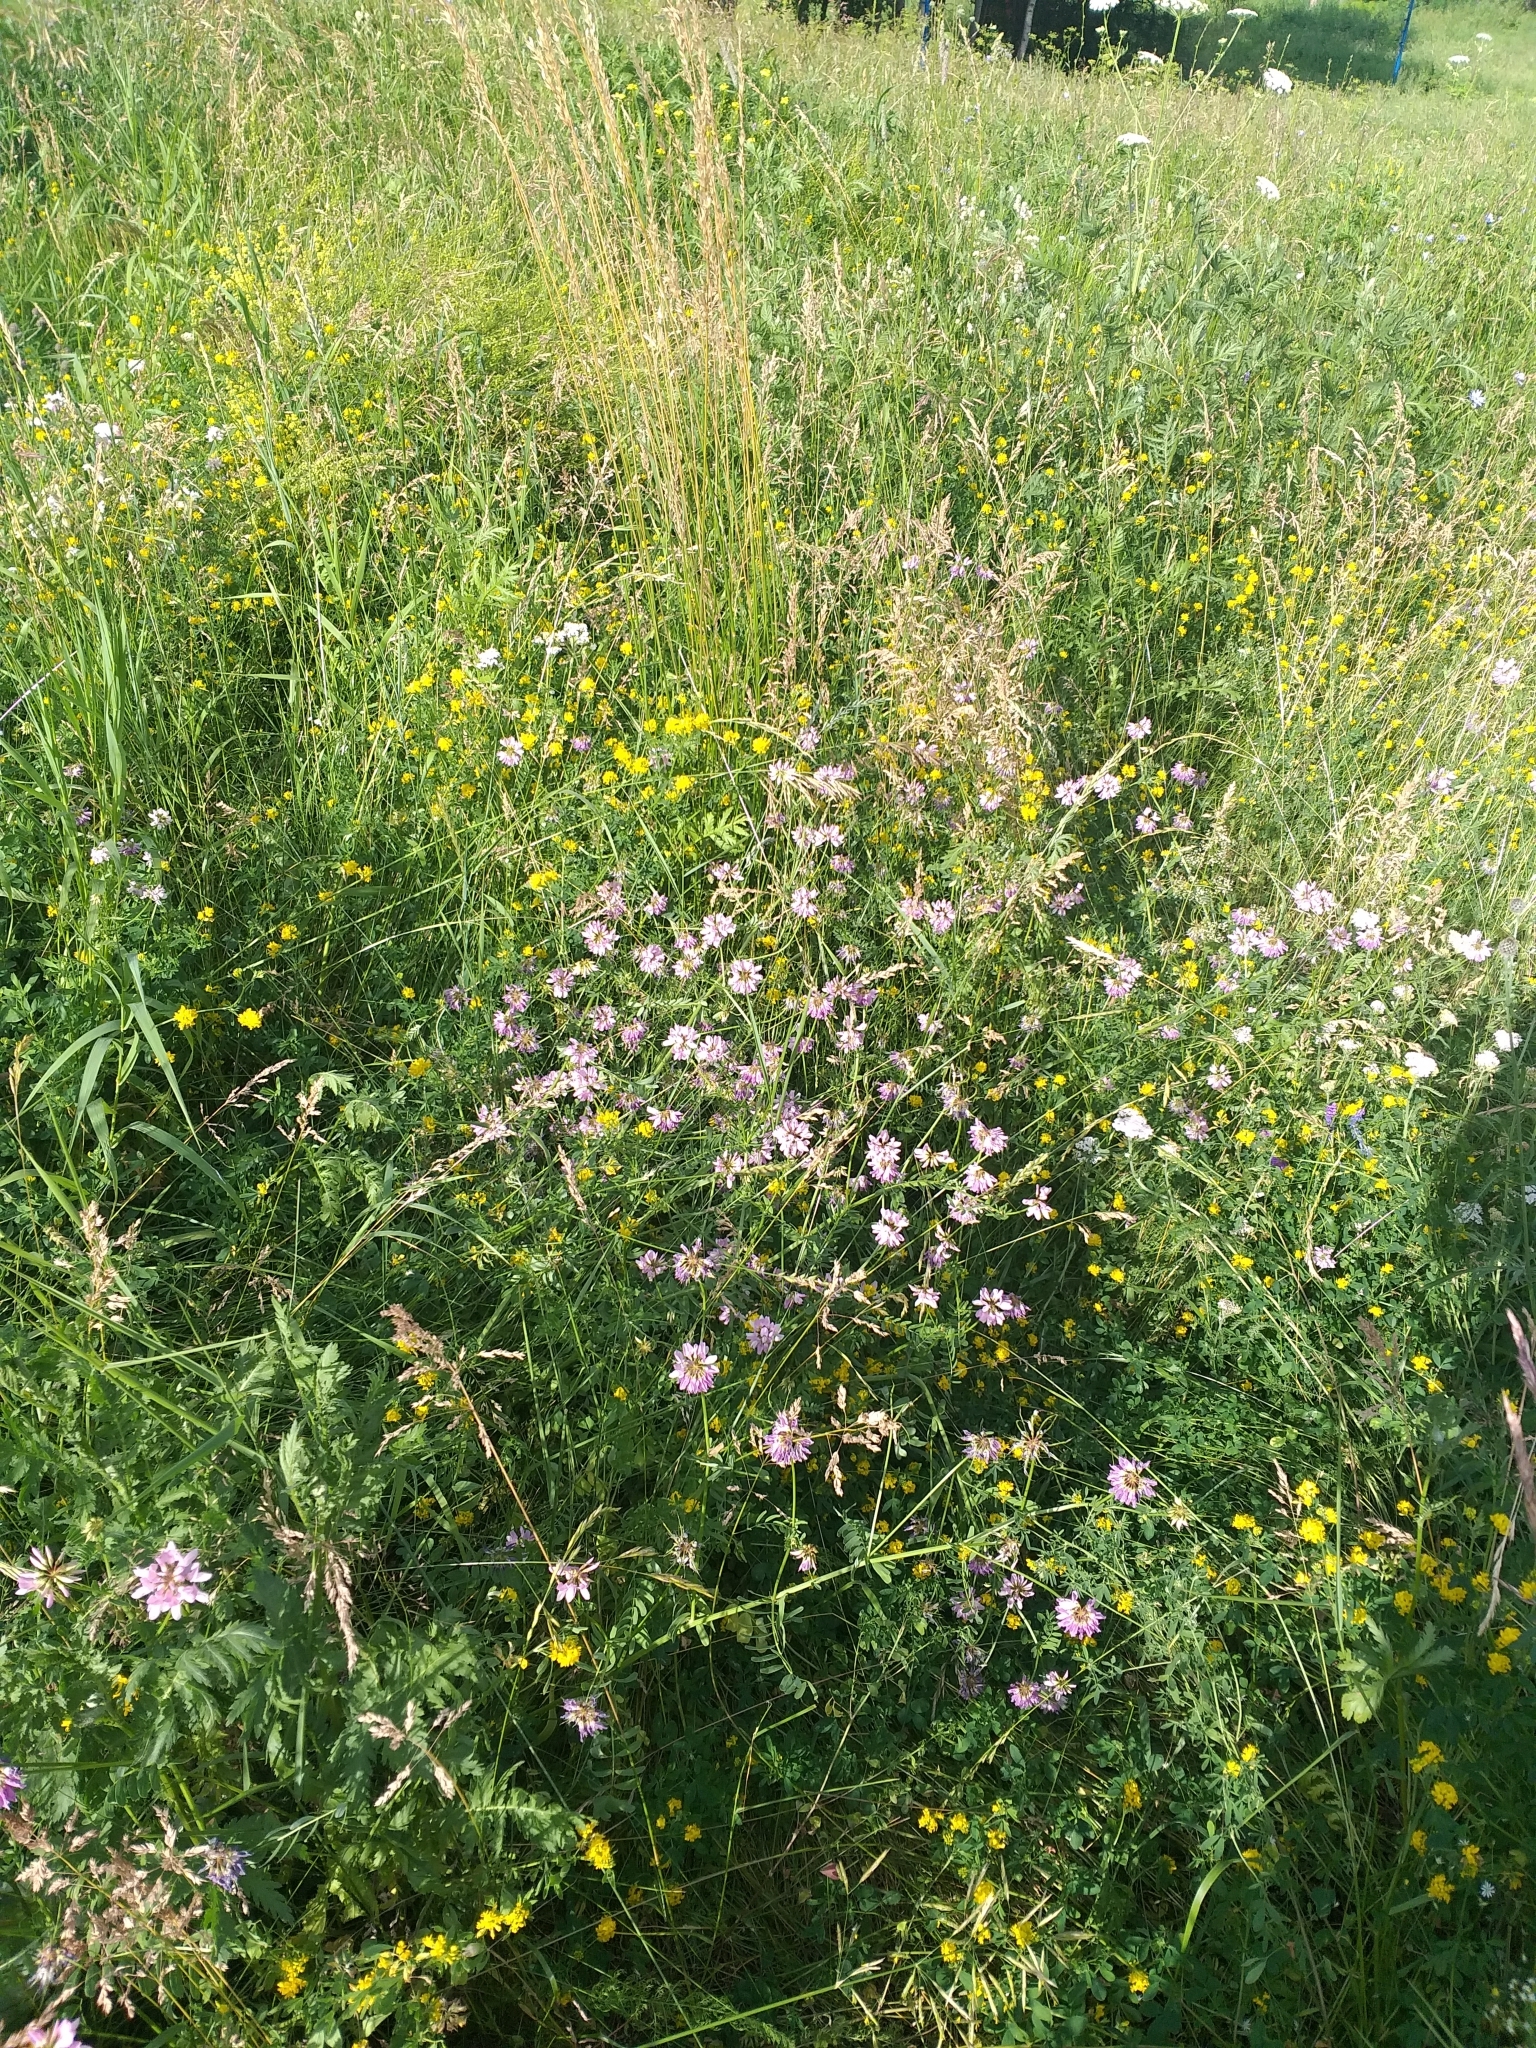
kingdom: Plantae
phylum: Tracheophyta
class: Magnoliopsida
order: Fabales
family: Fabaceae
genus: Coronilla
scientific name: Coronilla varia
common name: Crownvetch
